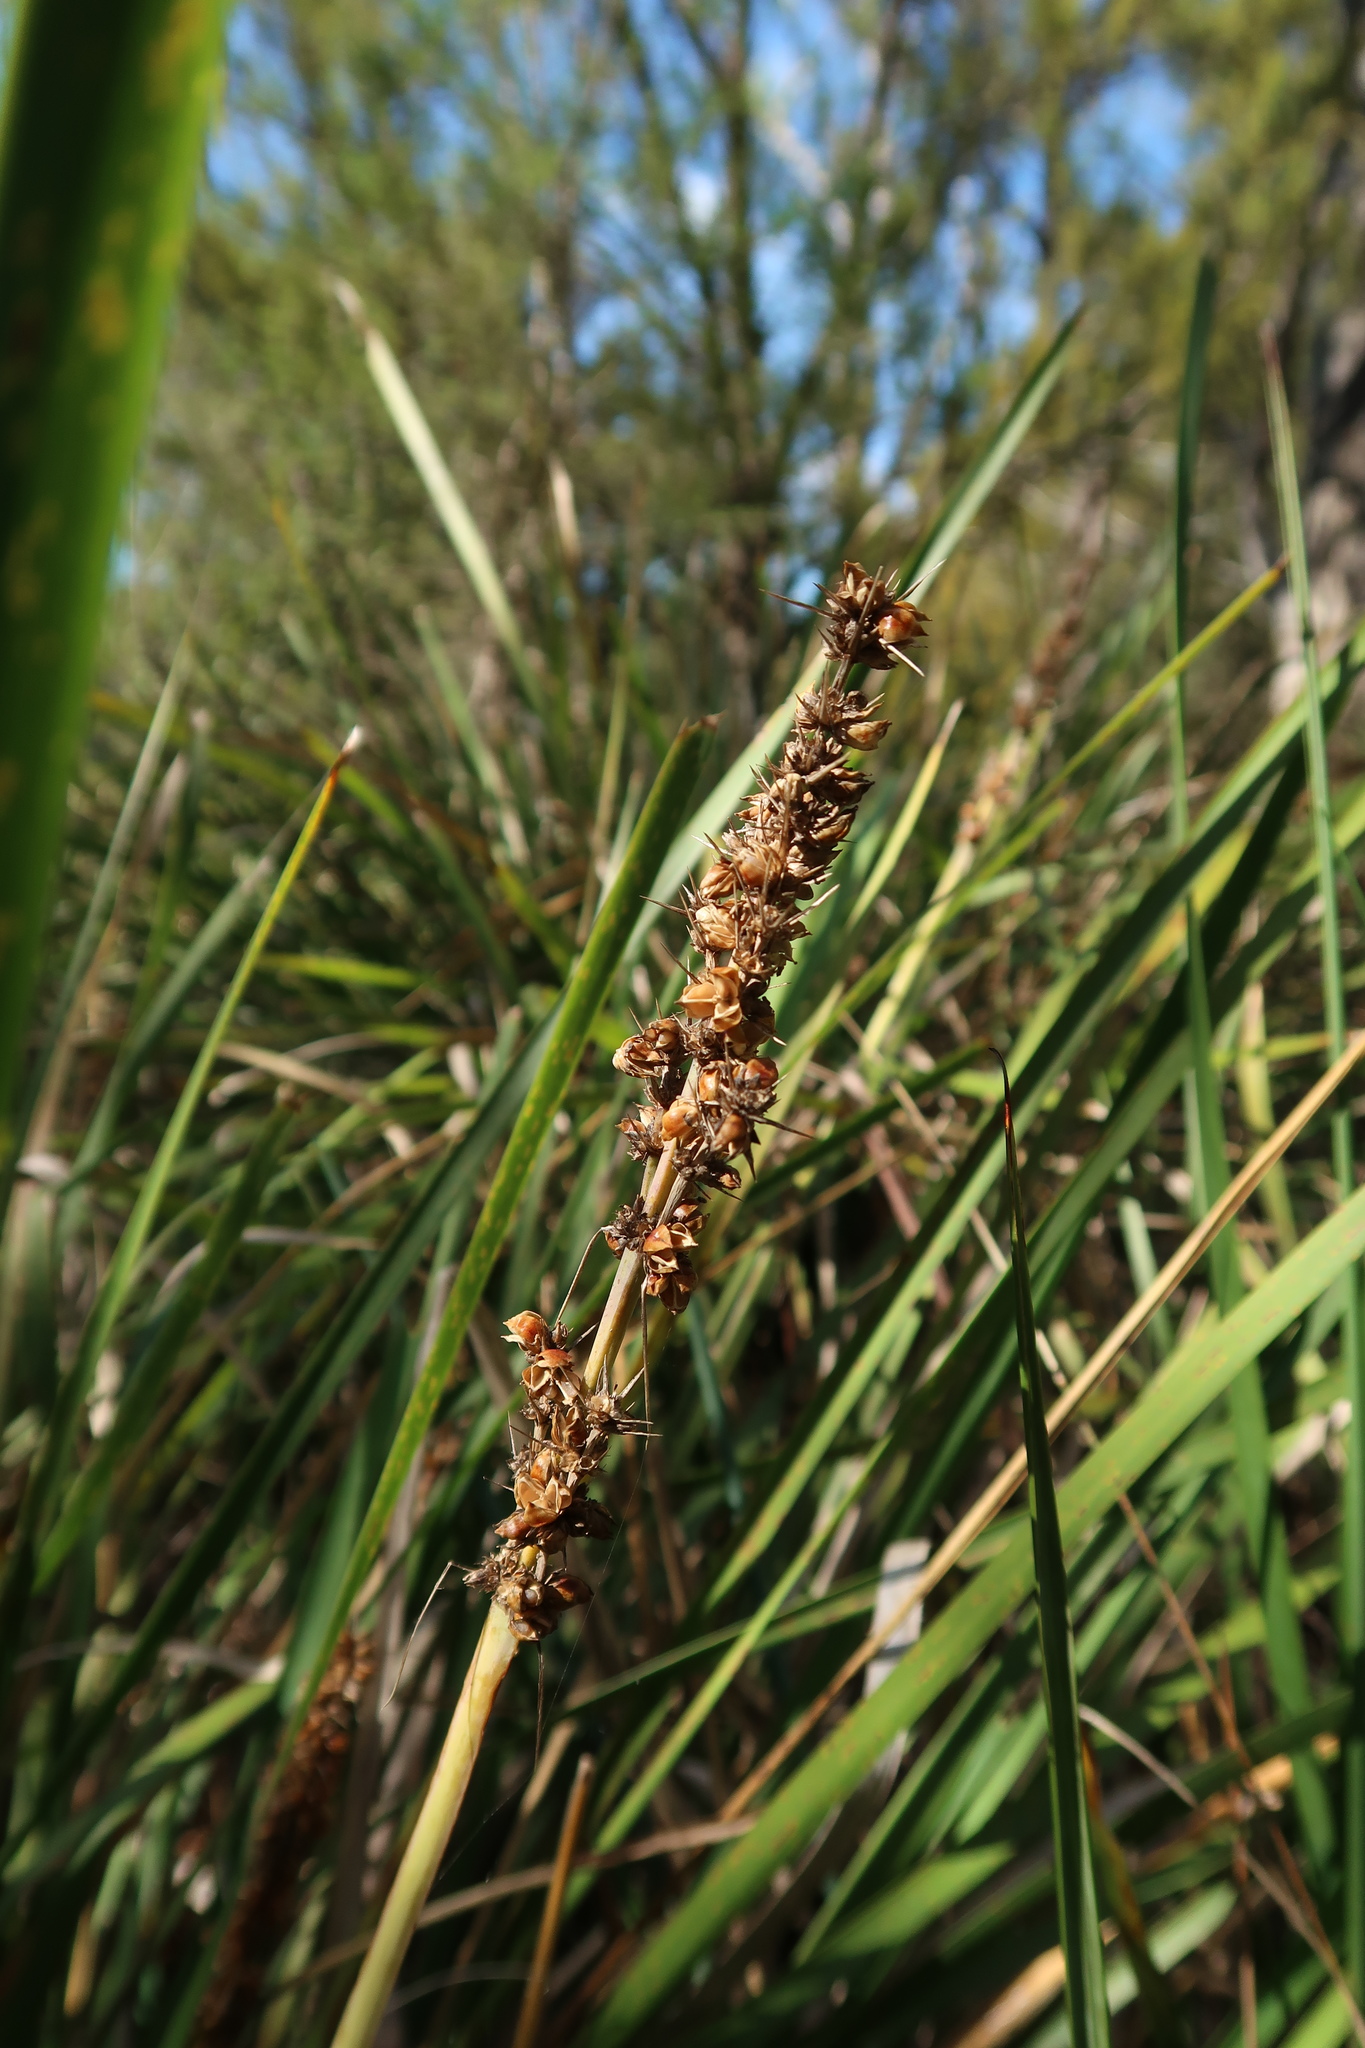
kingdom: Plantae
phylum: Tracheophyta
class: Liliopsida
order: Asparagales
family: Asparagaceae
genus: Lomandra
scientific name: Lomandra longifolia
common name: Longleaf mat-rush
